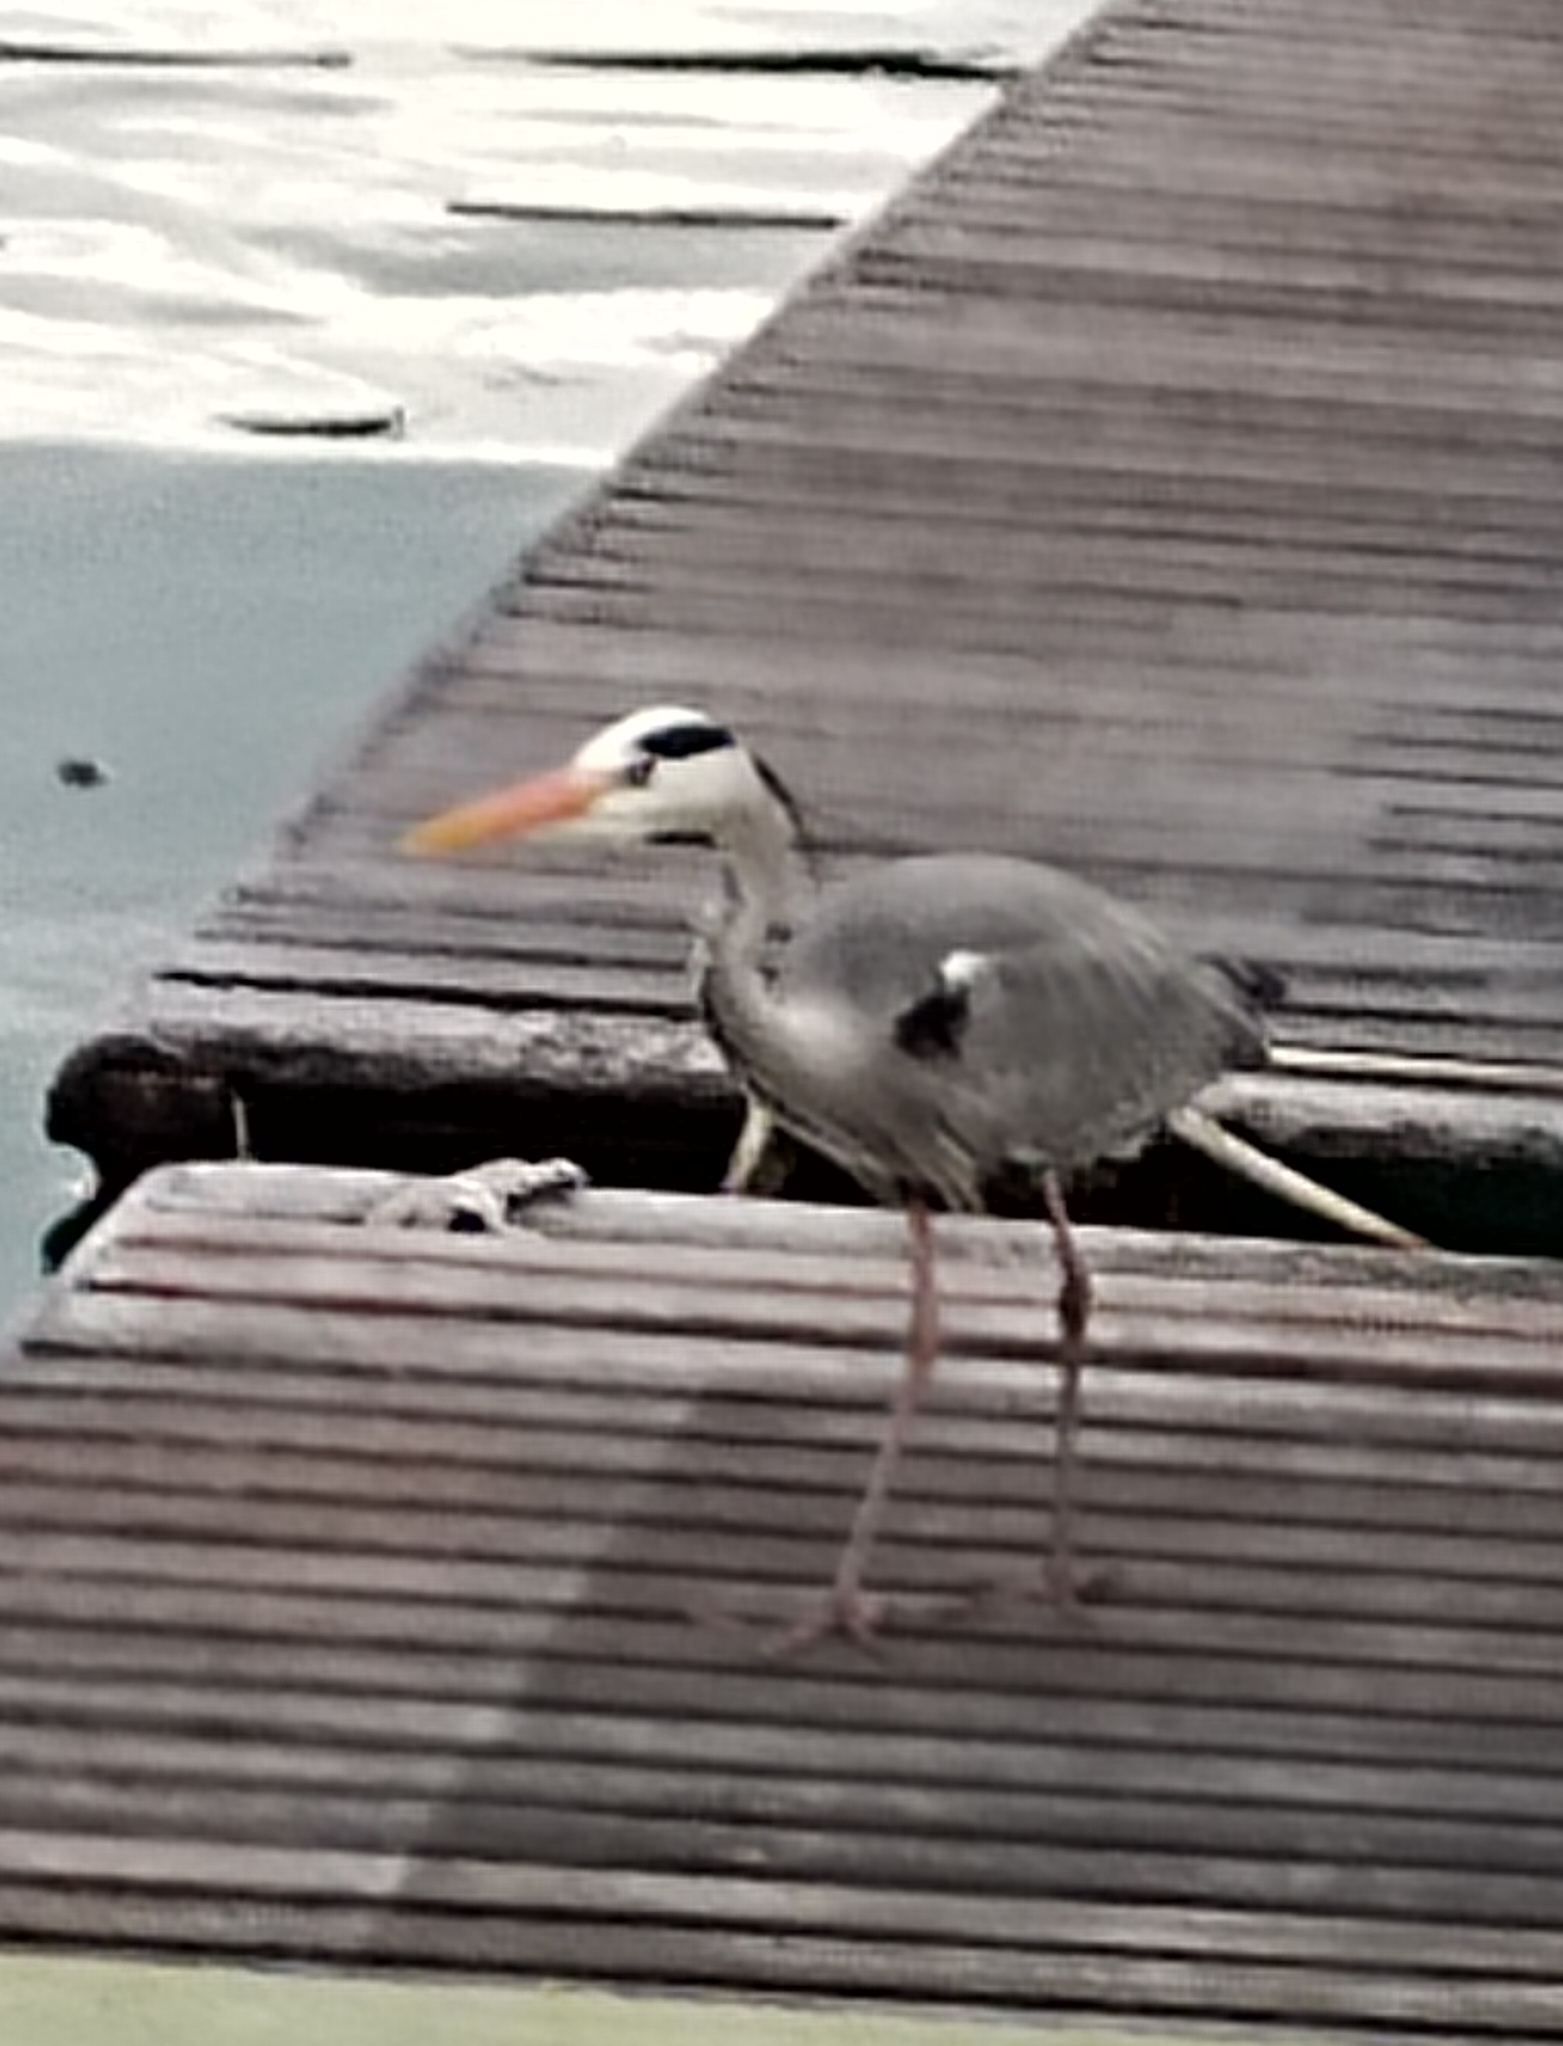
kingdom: Animalia
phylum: Chordata
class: Aves
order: Pelecaniformes
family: Ardeidae
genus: Ardea
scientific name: Ardea cinerea
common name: Grey heron
